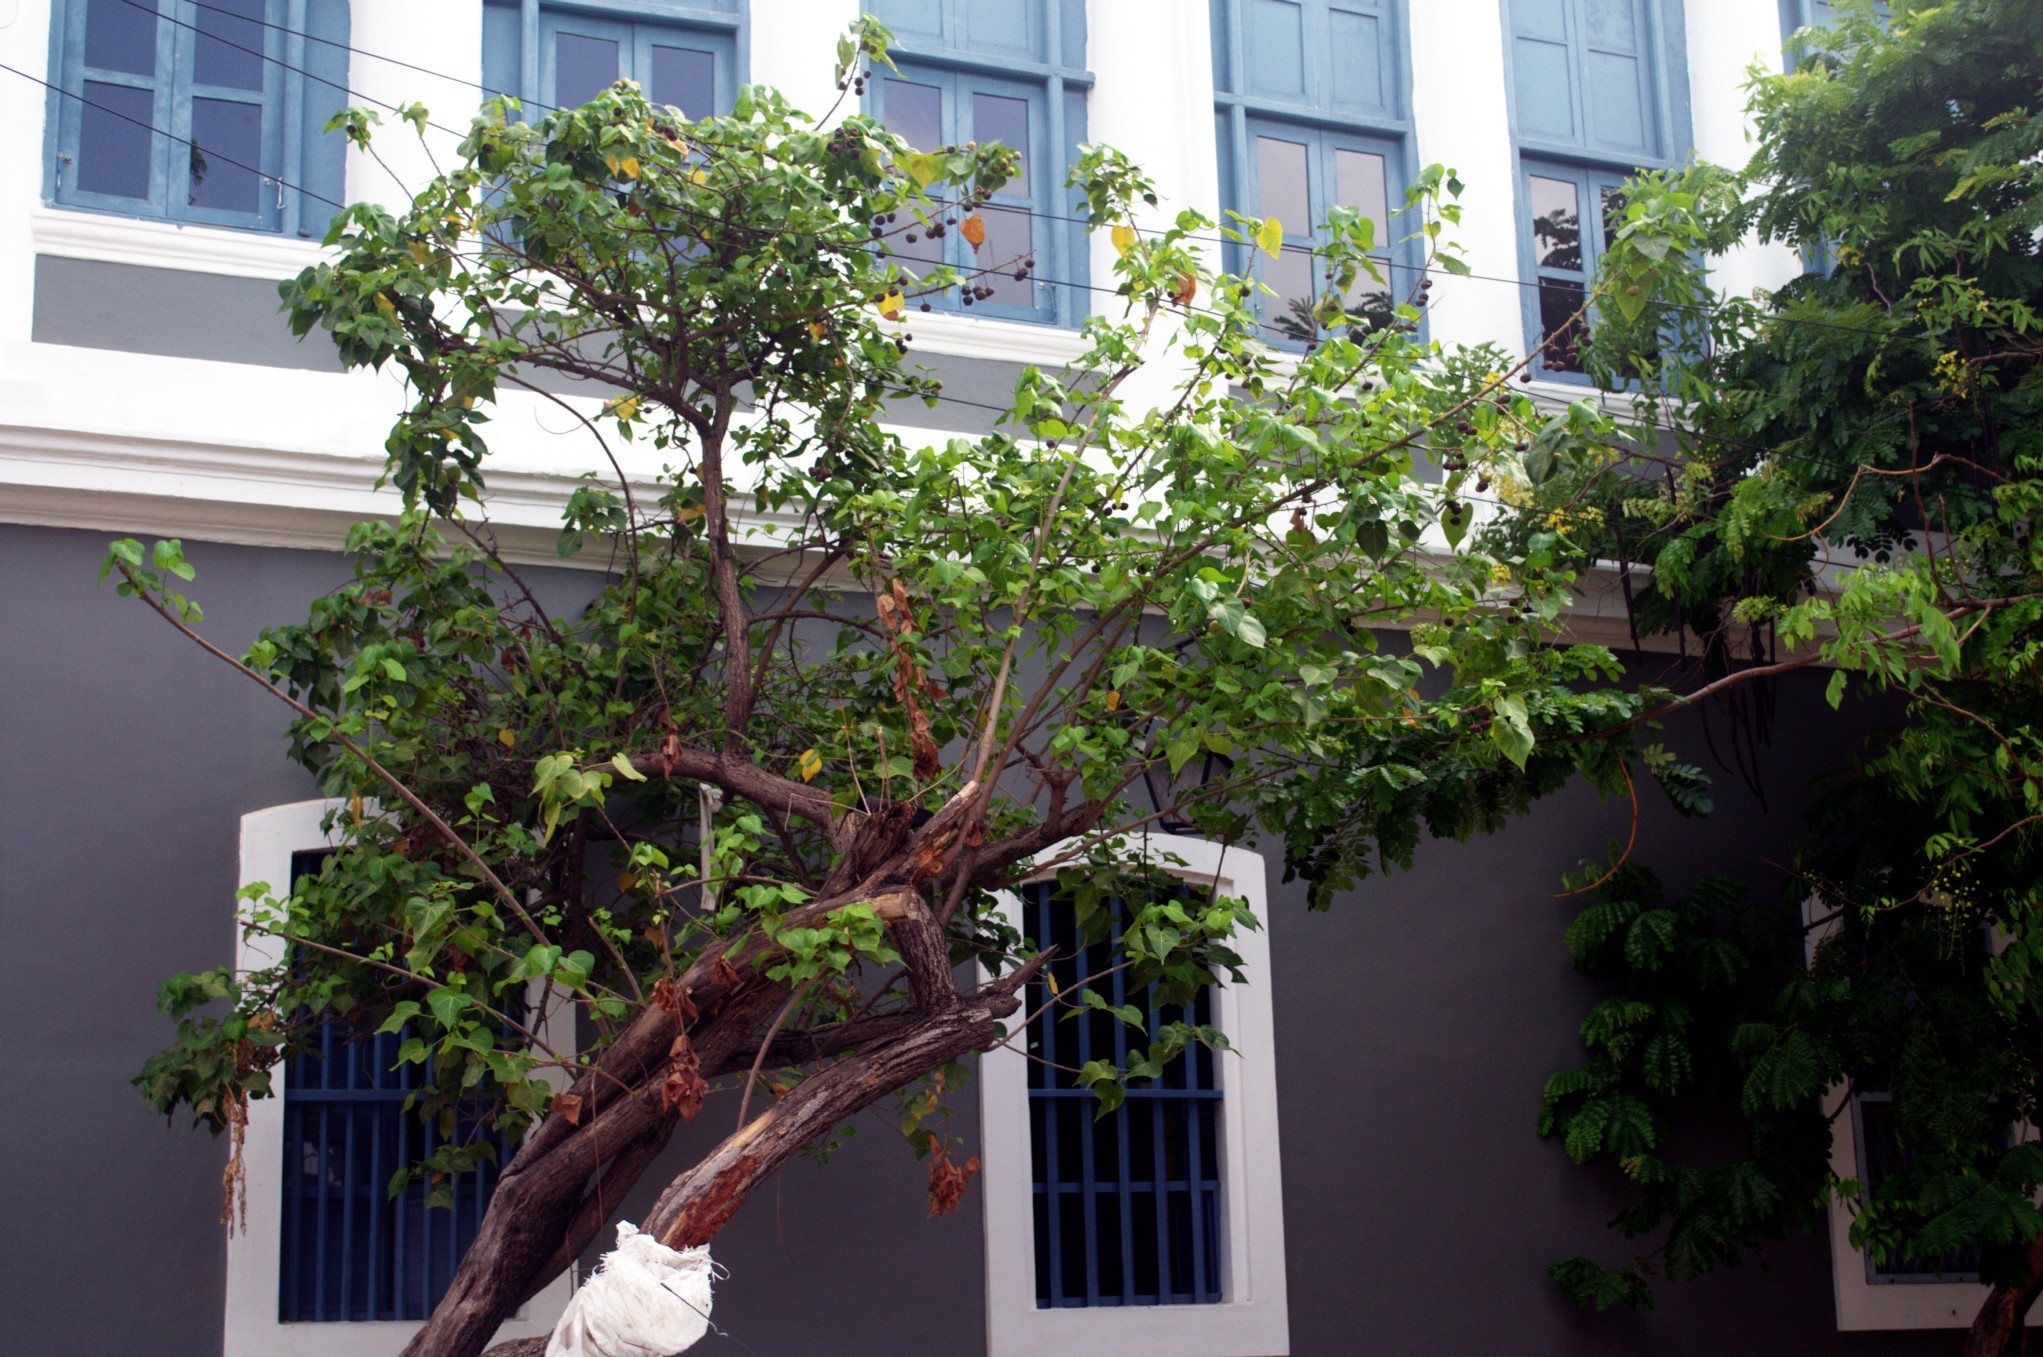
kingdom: Plantae
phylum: Tracheophyta
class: Magnoliopsida
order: Malvales
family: Malvaceae
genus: Thespesia
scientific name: Thespesia populnea
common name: Seaside mahoe
